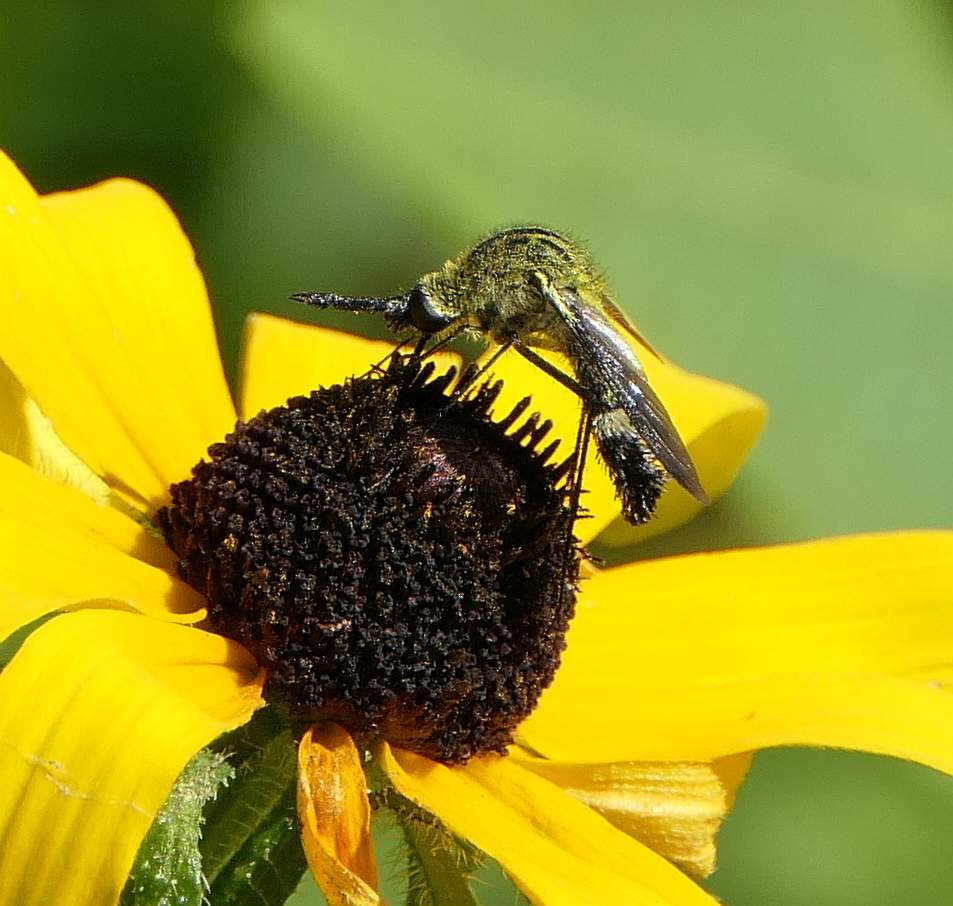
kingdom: Animalia
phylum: Arthropoda
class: Insecta
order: Diptera
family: Bombyliidae
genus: Lepidophora
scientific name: Lepidophora lutea
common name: Hunchback bee fly
